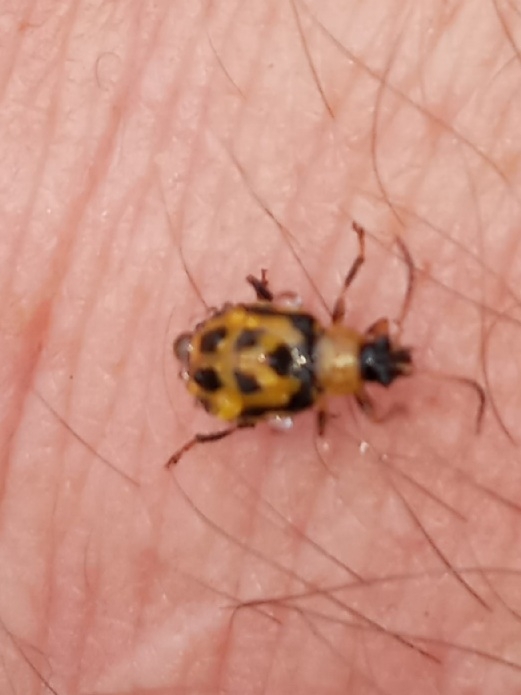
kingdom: Animalia
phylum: Arthropoda
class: Insecta
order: Coleoptera
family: Chrysomelidae
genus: Cerotoma
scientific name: Cerotoma trifurcata
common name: Bean leaf beetle
